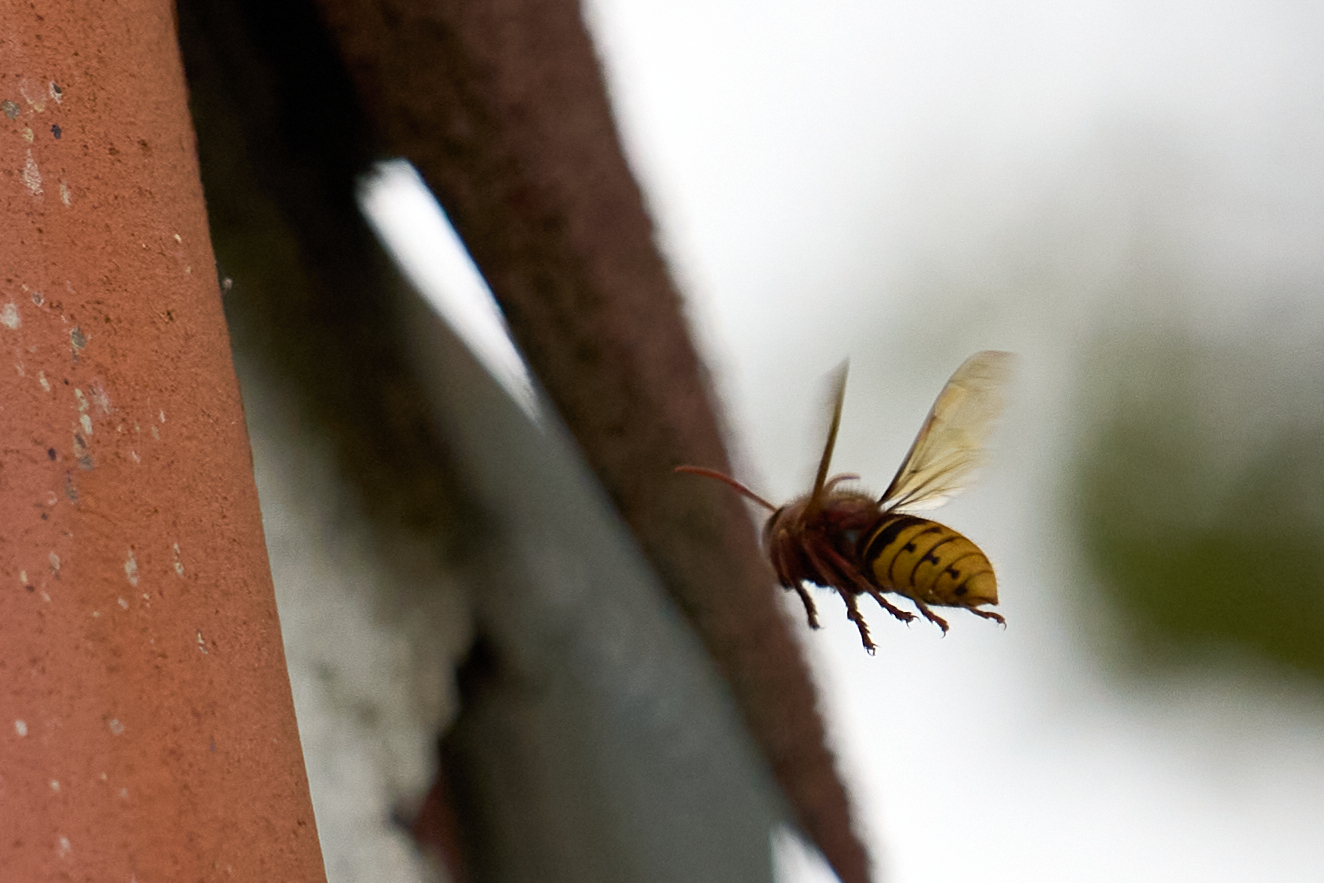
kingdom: Animalia
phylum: Arthropoda
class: Insecta
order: Hymenoptera
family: Vespidae
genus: Vespa
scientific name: Vespa crabro
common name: Hornet
